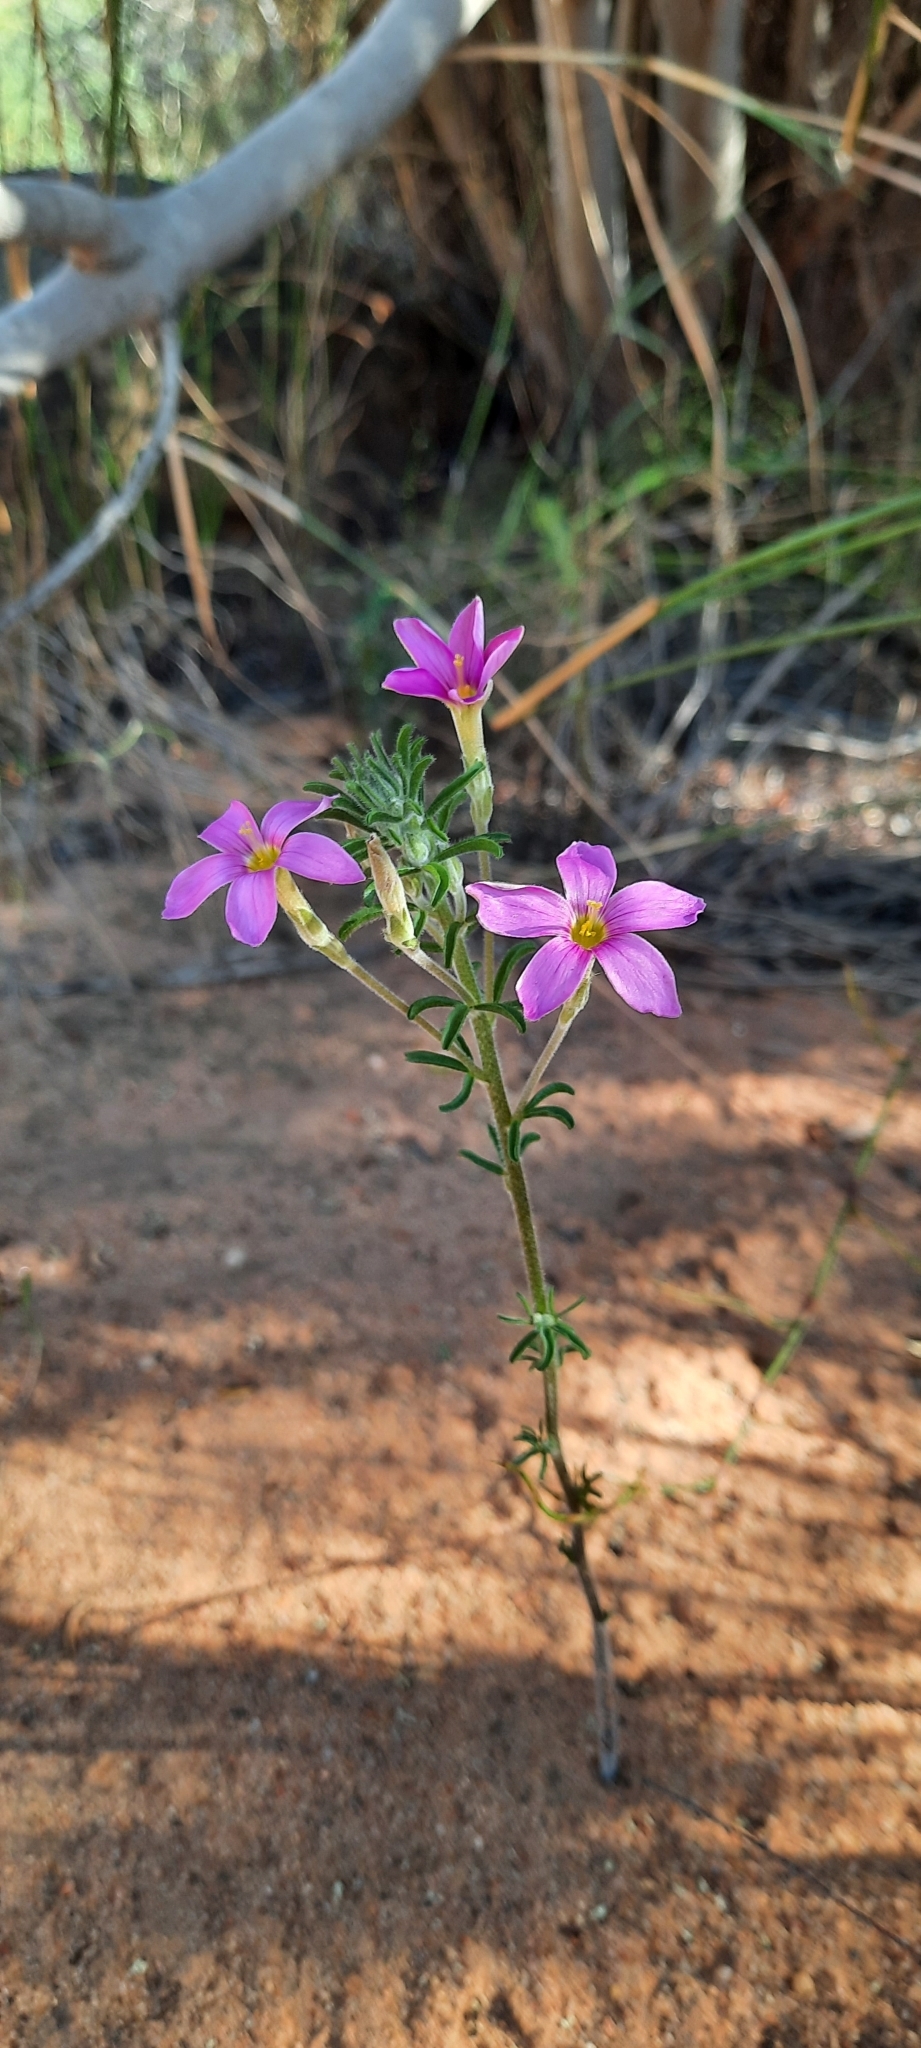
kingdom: Plantae
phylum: Tracheophyta
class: Magnoliopsida
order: Oxalidales
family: Oxalidaceae
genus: Oxalis
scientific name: Oxalis hirta
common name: Tropical woodsorrel
